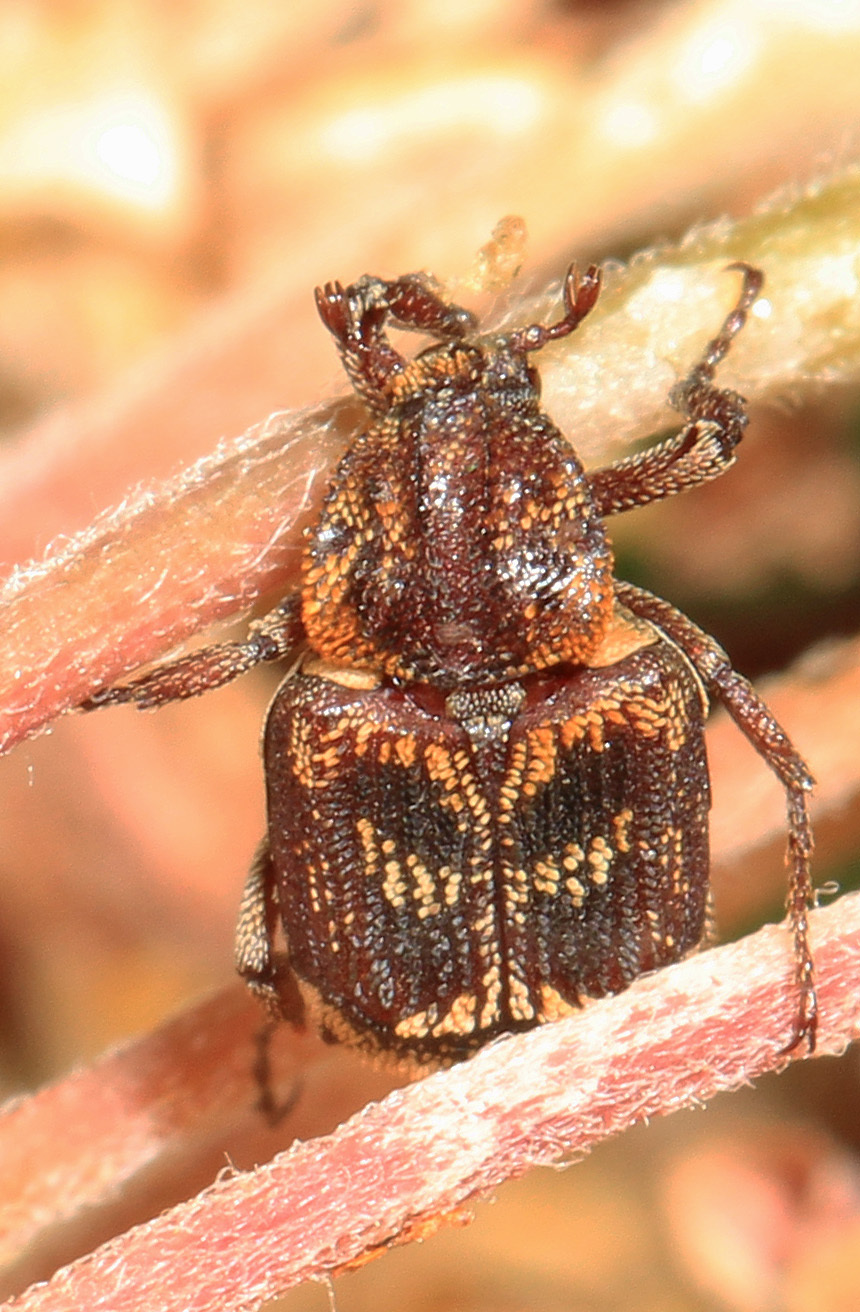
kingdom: Animalia
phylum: Arthropoda
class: Insecta
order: Coleoptera
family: Scarabaeidae
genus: Valgus
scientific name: Valgus canaliculatus
